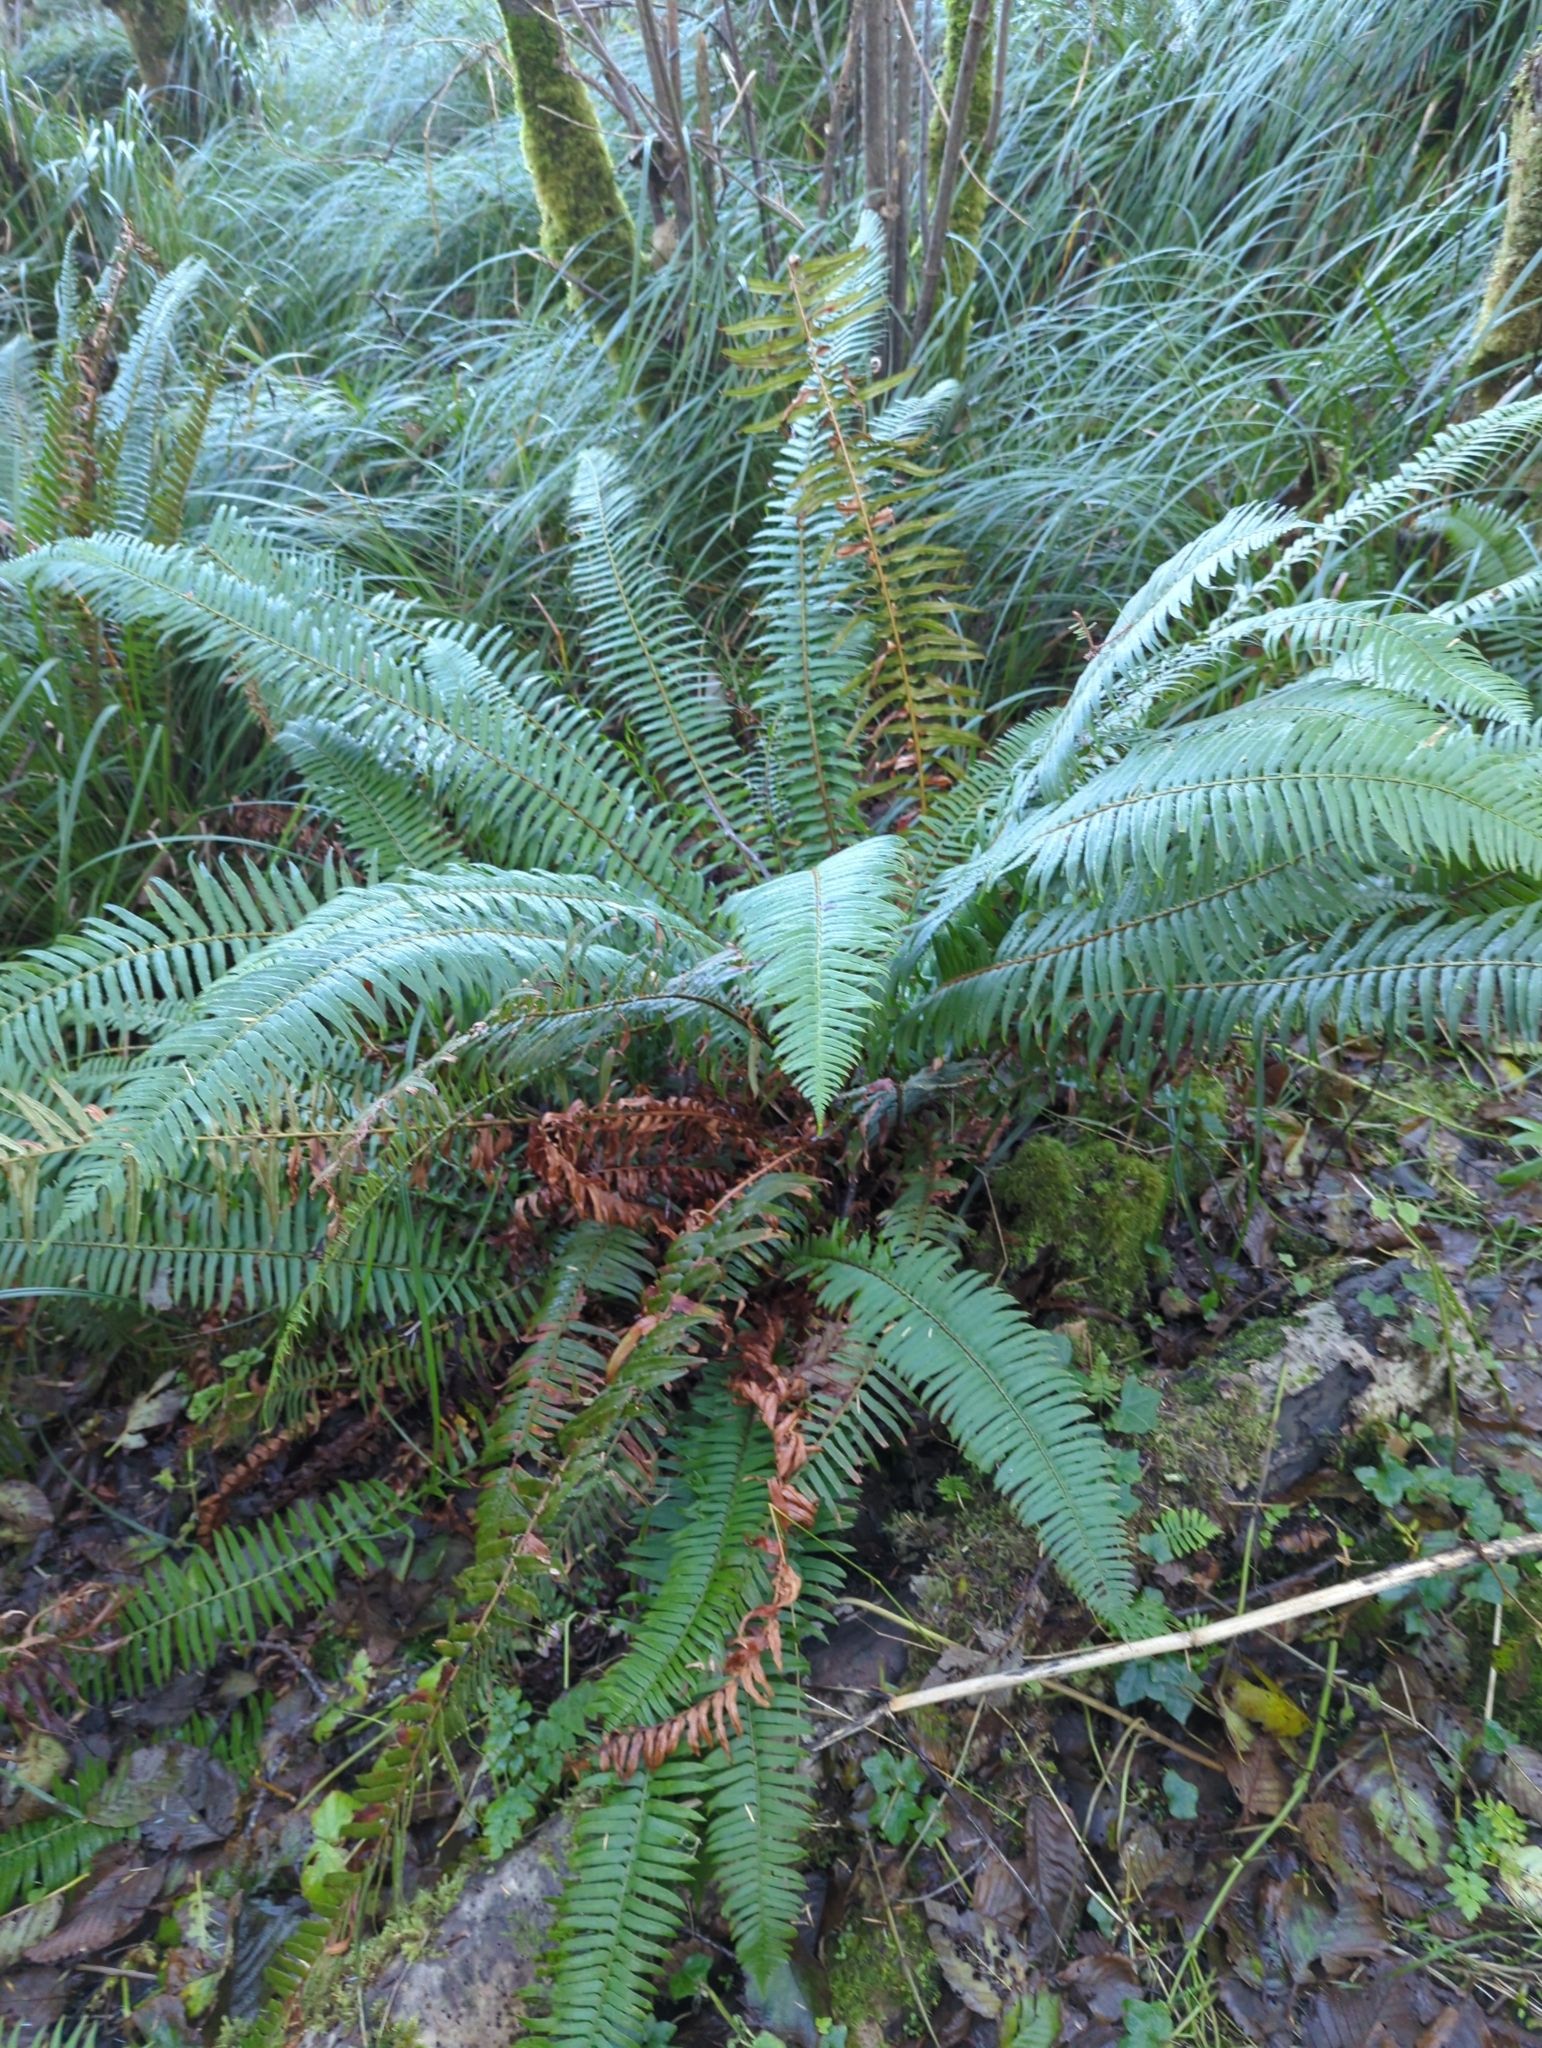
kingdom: Plantae
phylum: Tracheophyta
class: Polypodiopsida
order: Polypodiales
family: Dryopteridaceae
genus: Polystichum
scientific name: Polystichum munitum
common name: Western sword-fern
